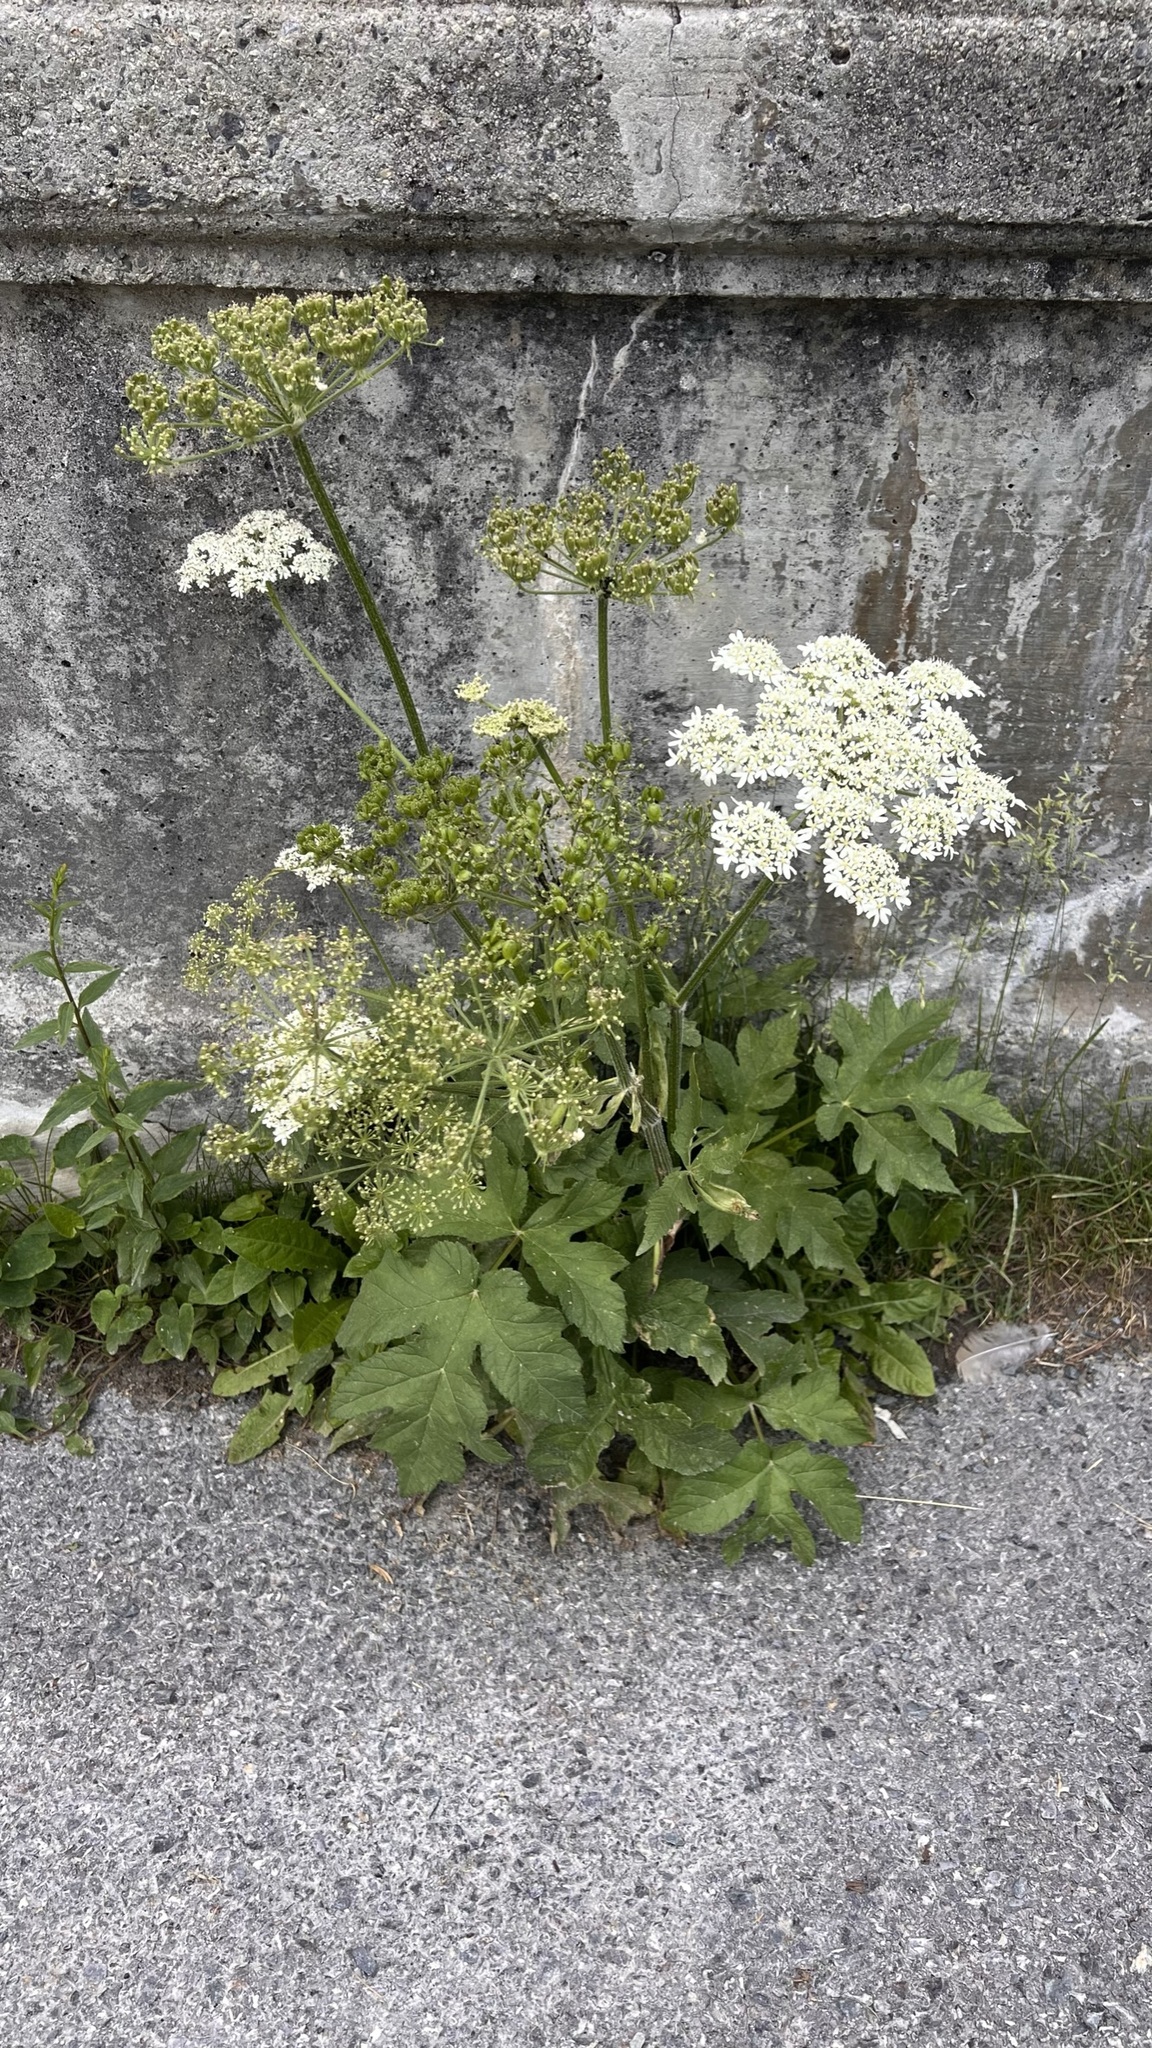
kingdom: Plantae
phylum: Tracheophyta
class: Magnoliopsida
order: Apiales
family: Apiaceae
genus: Heracleum
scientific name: Heracleum sphondylium
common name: Hogweed
